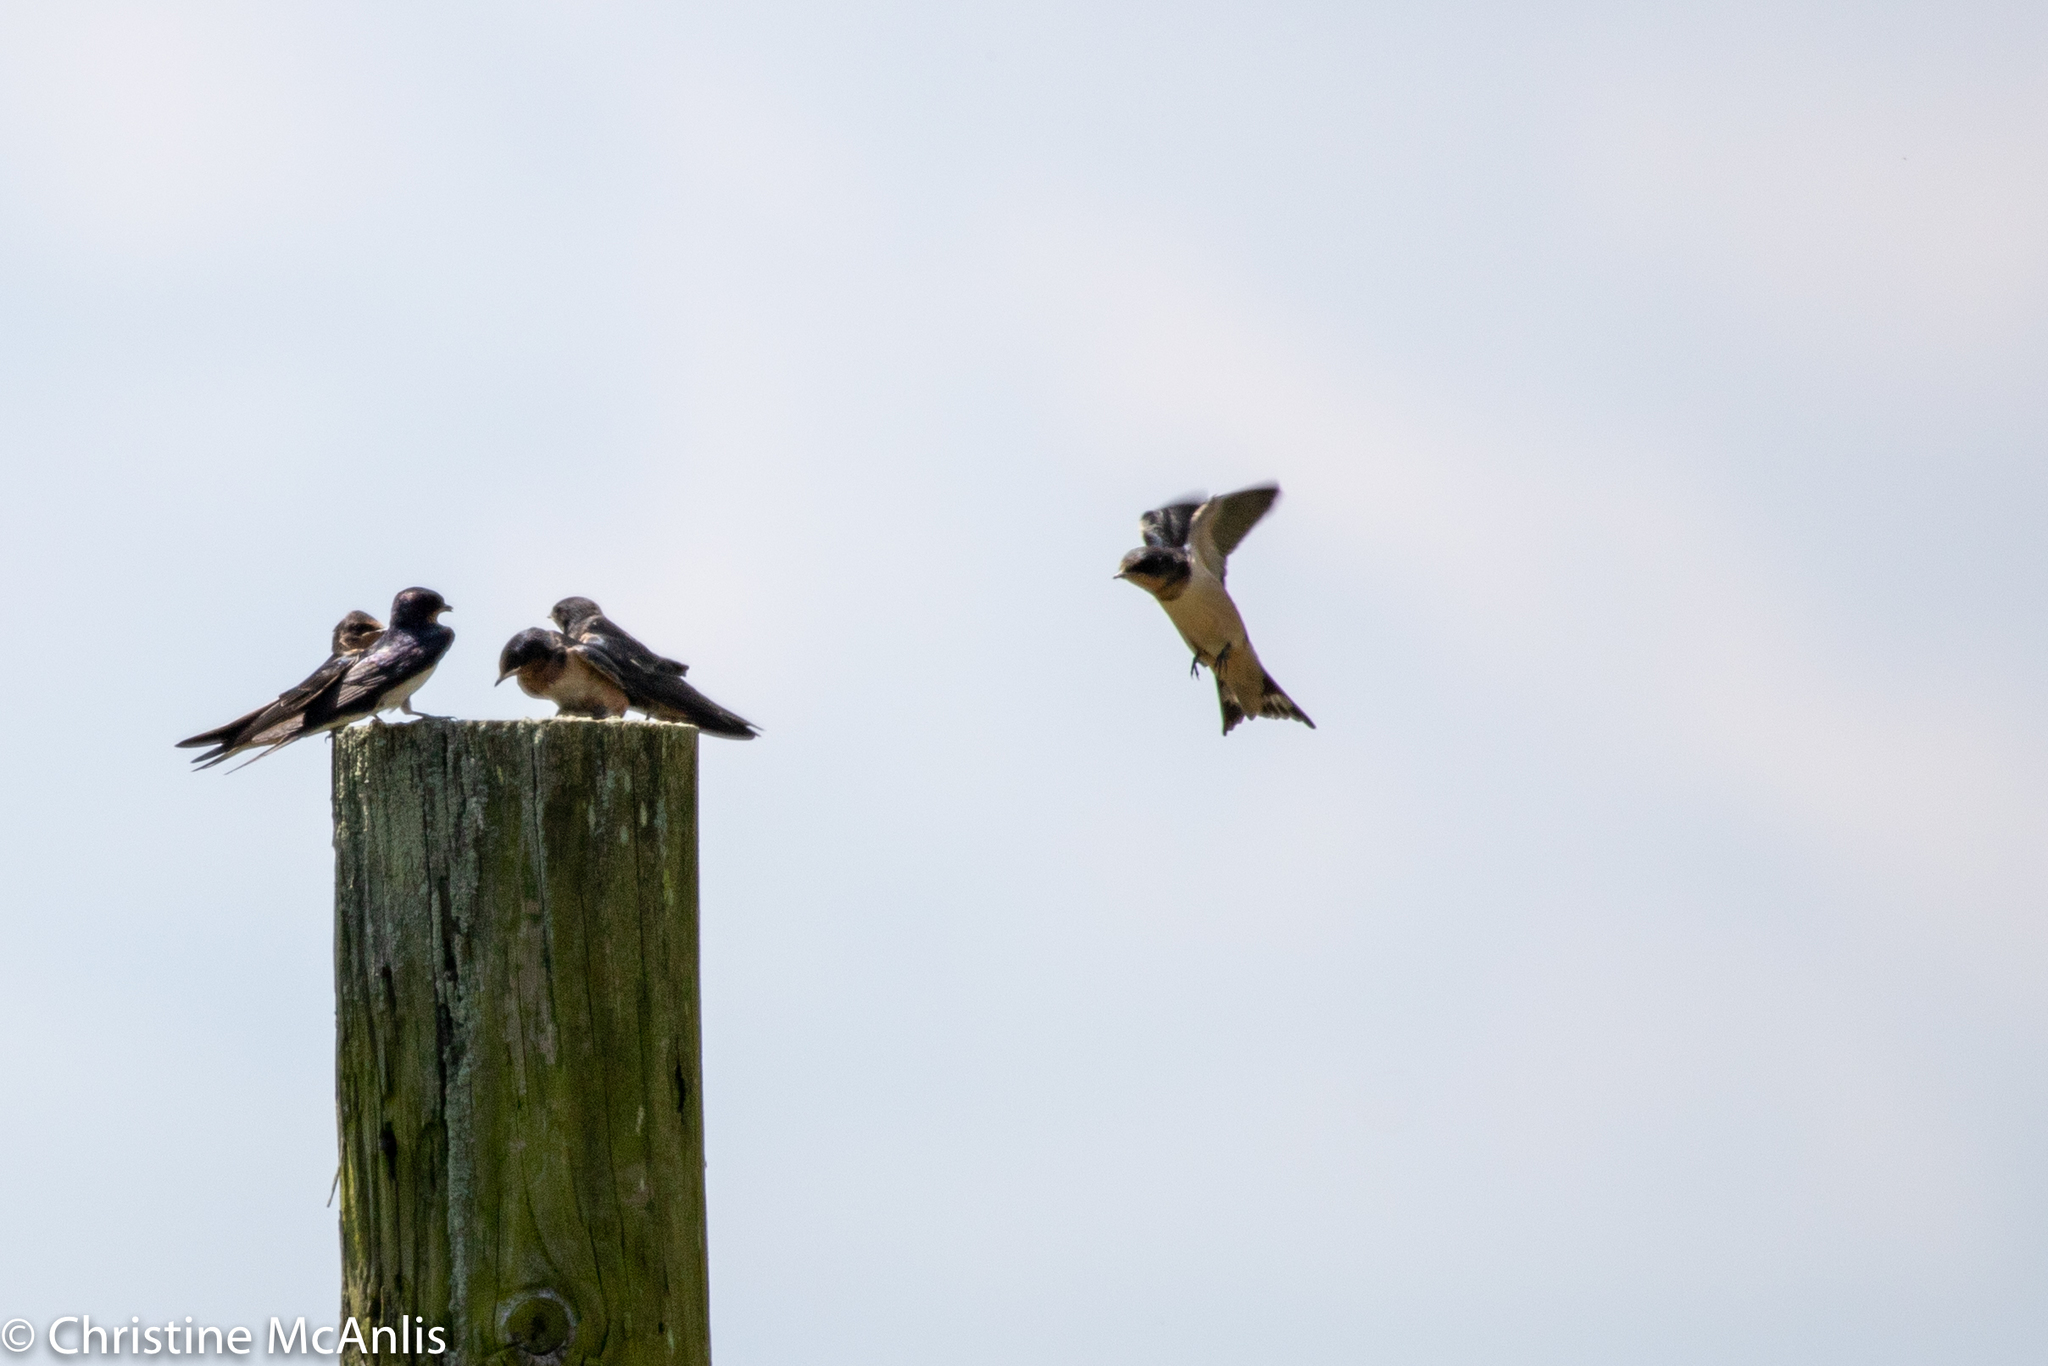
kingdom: Animalia
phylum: Chordata
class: Aves
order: Passeriformes
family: Hirundinidae
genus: Hirundo
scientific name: Hirundo rustica
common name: Barn swallow
